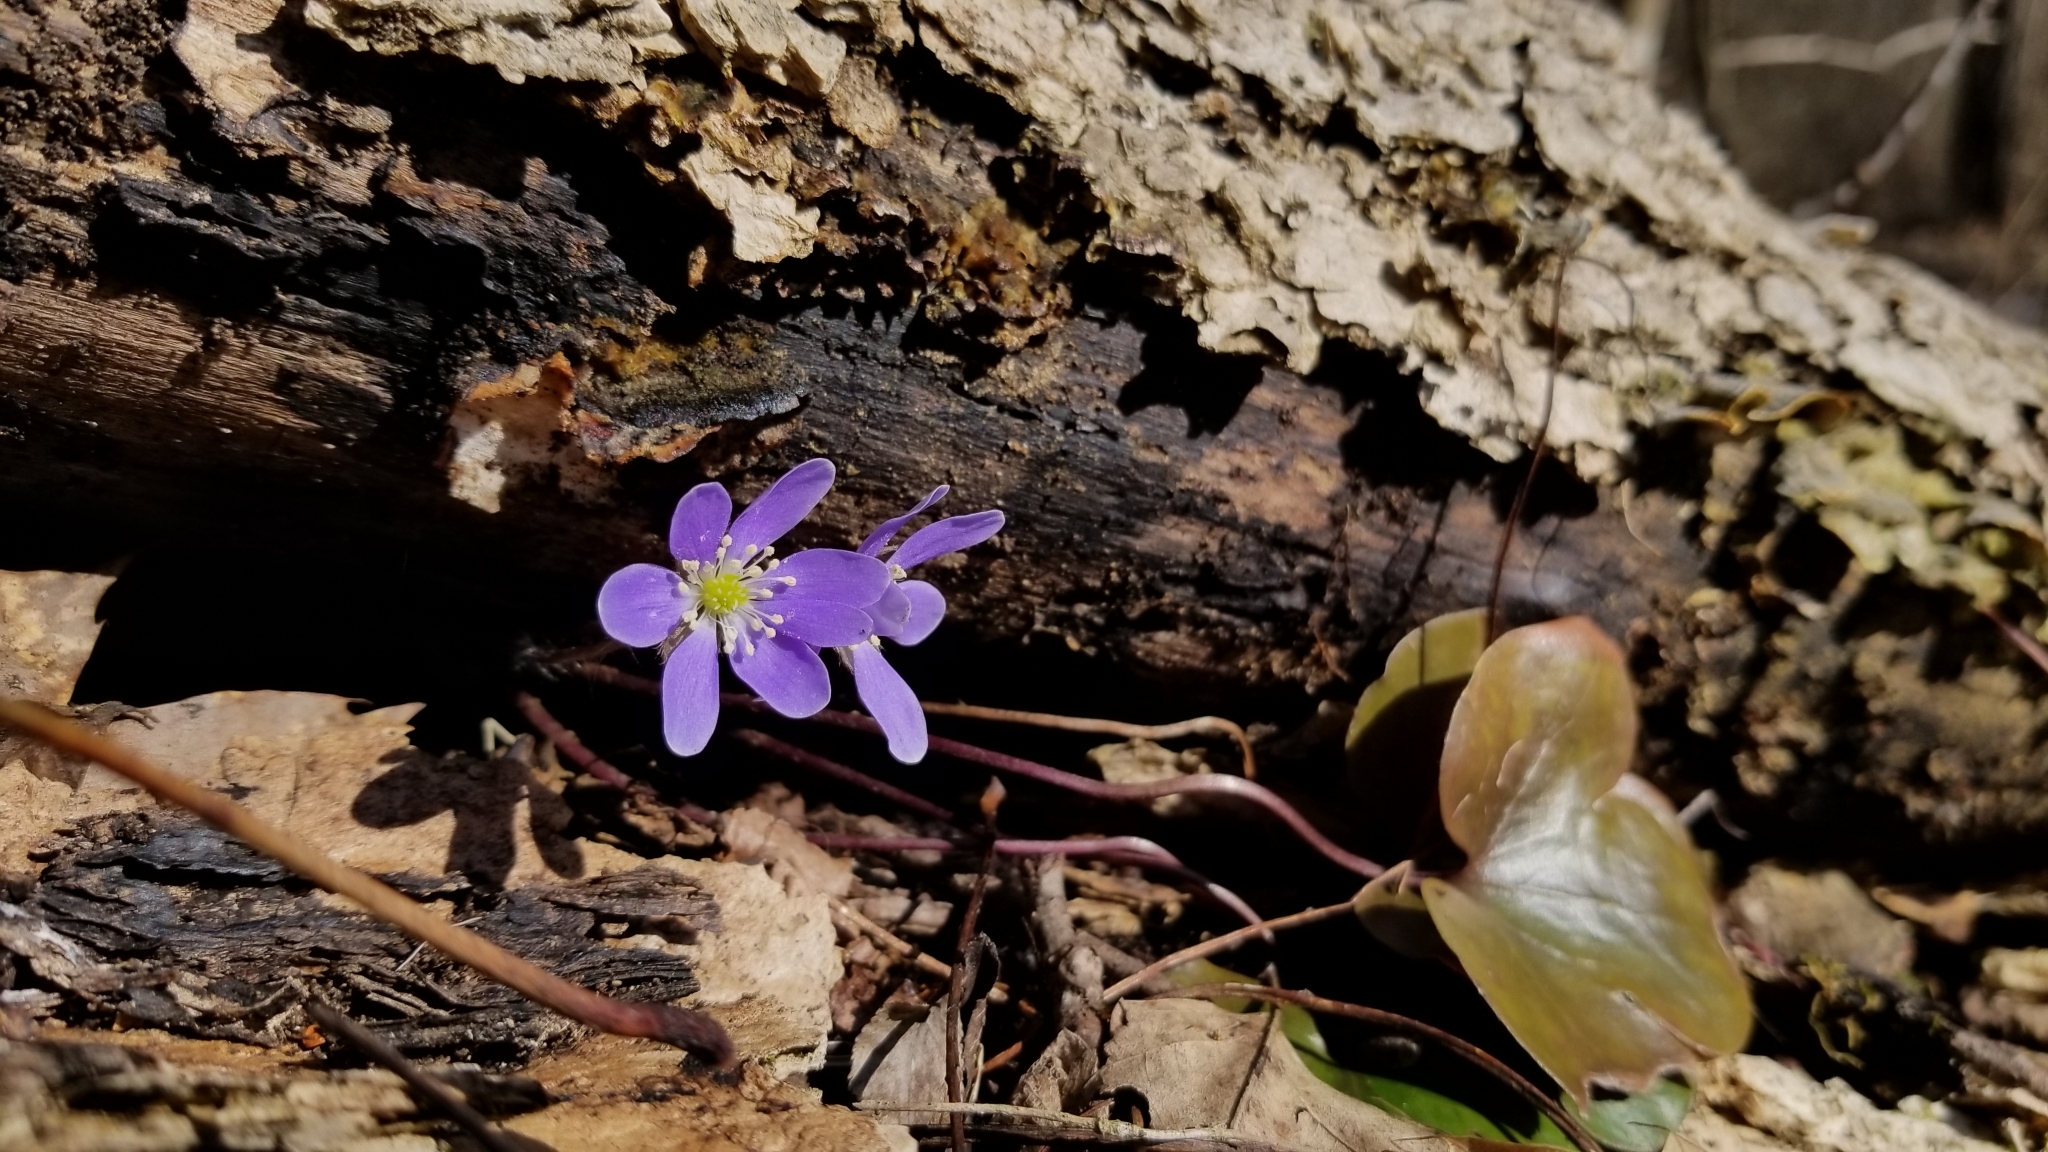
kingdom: Plantae
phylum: Tracheophyta
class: Magnoliopsida
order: Ranunculales
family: Ranunculaceae
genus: Hepatica
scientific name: Hepatica americana
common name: American hepatica
